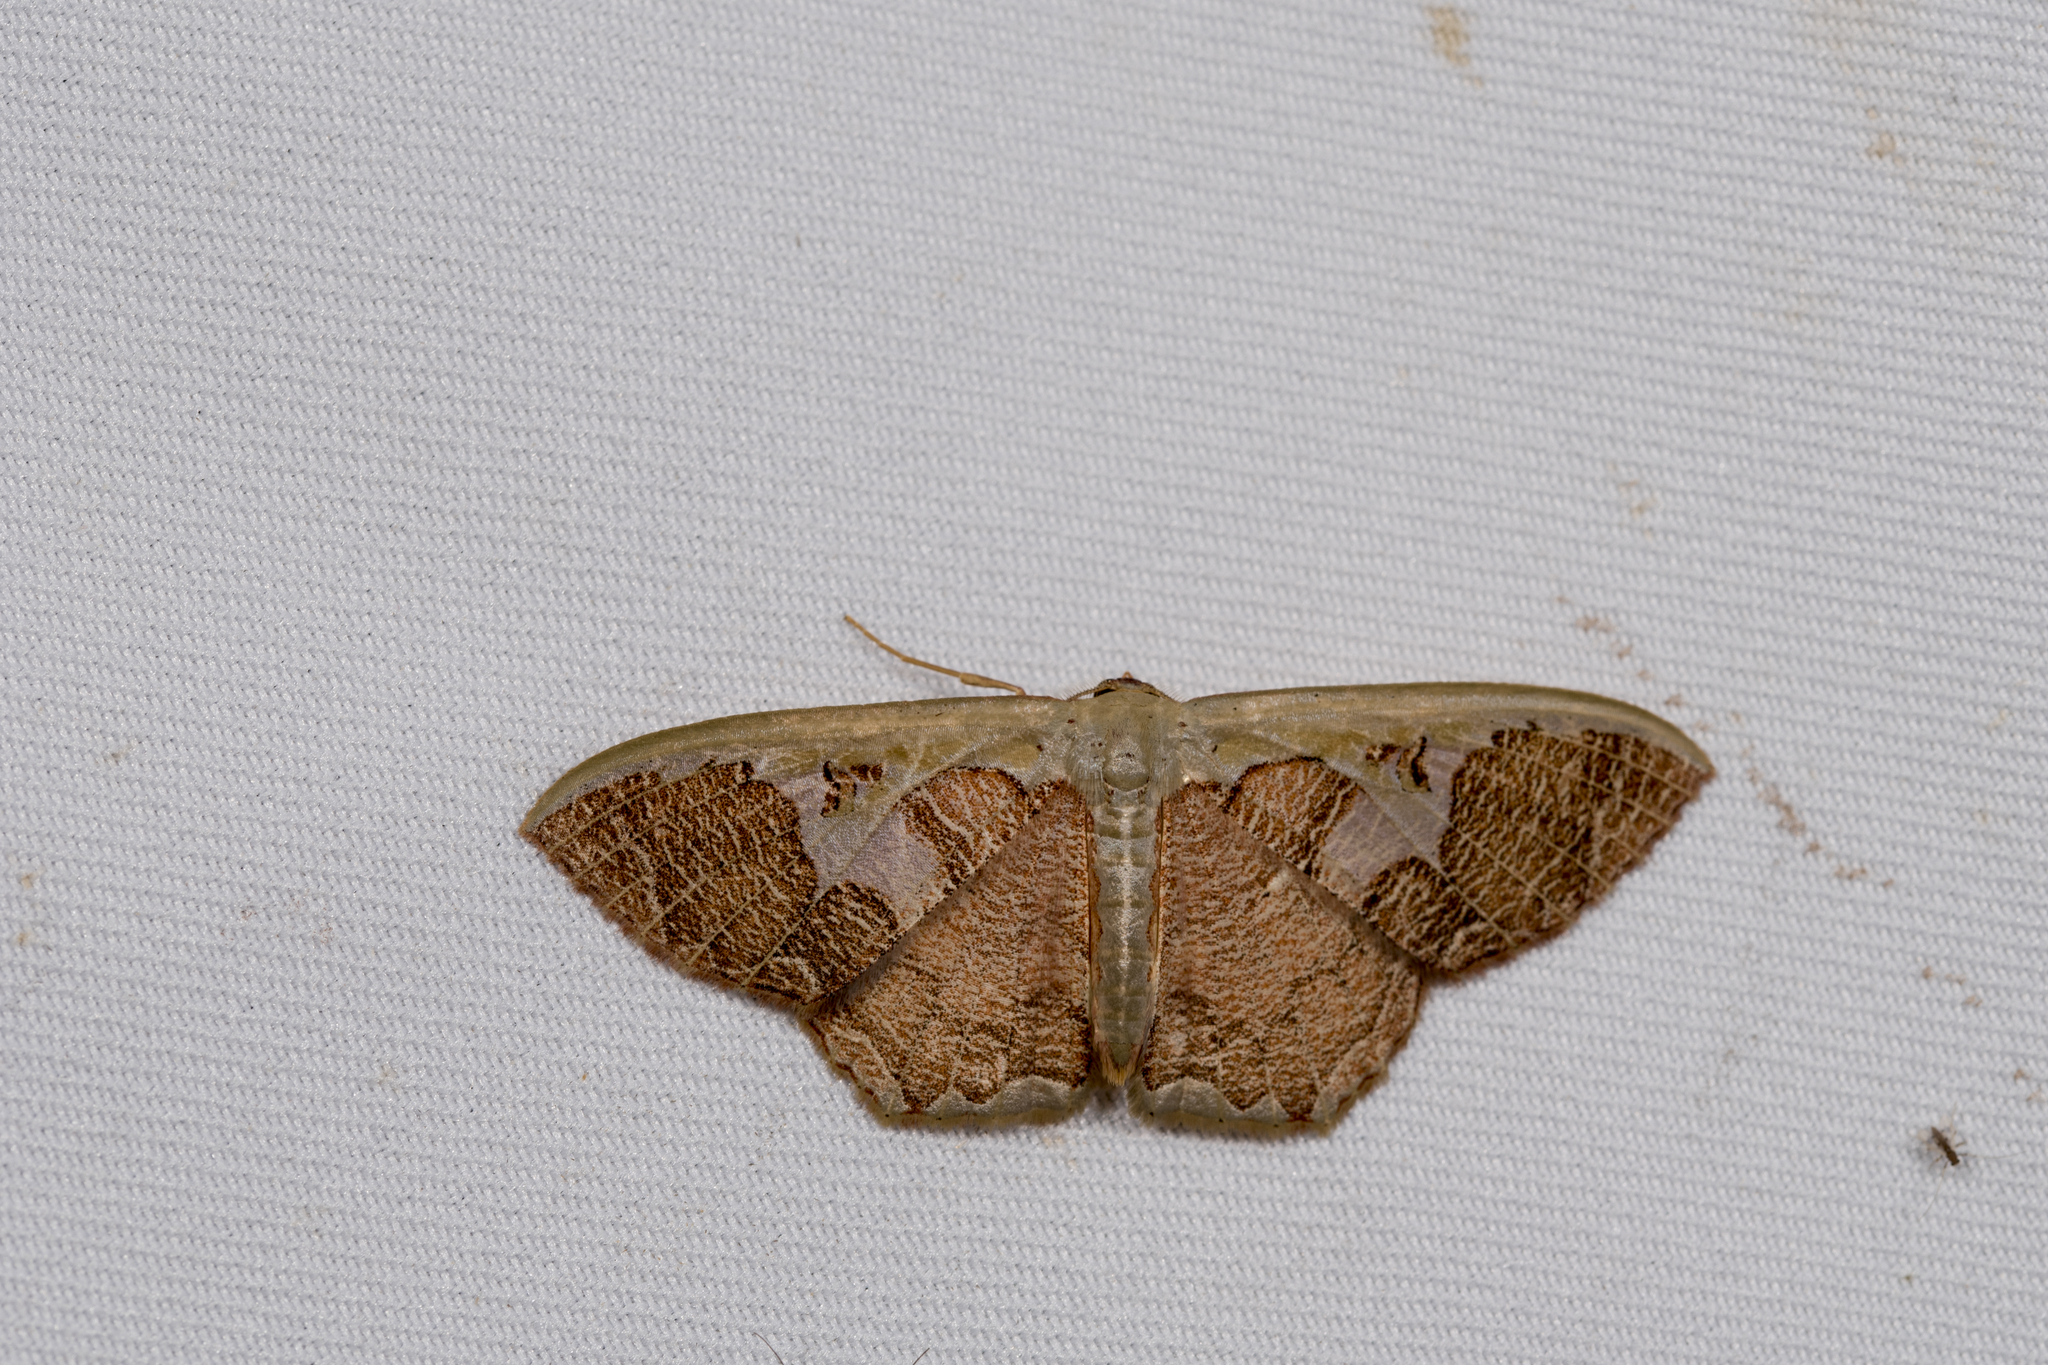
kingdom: Animalia
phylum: Arthropoda
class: Insecta
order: Lepidoptera
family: Geometridae
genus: Zythos
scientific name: Zythos avellanea
